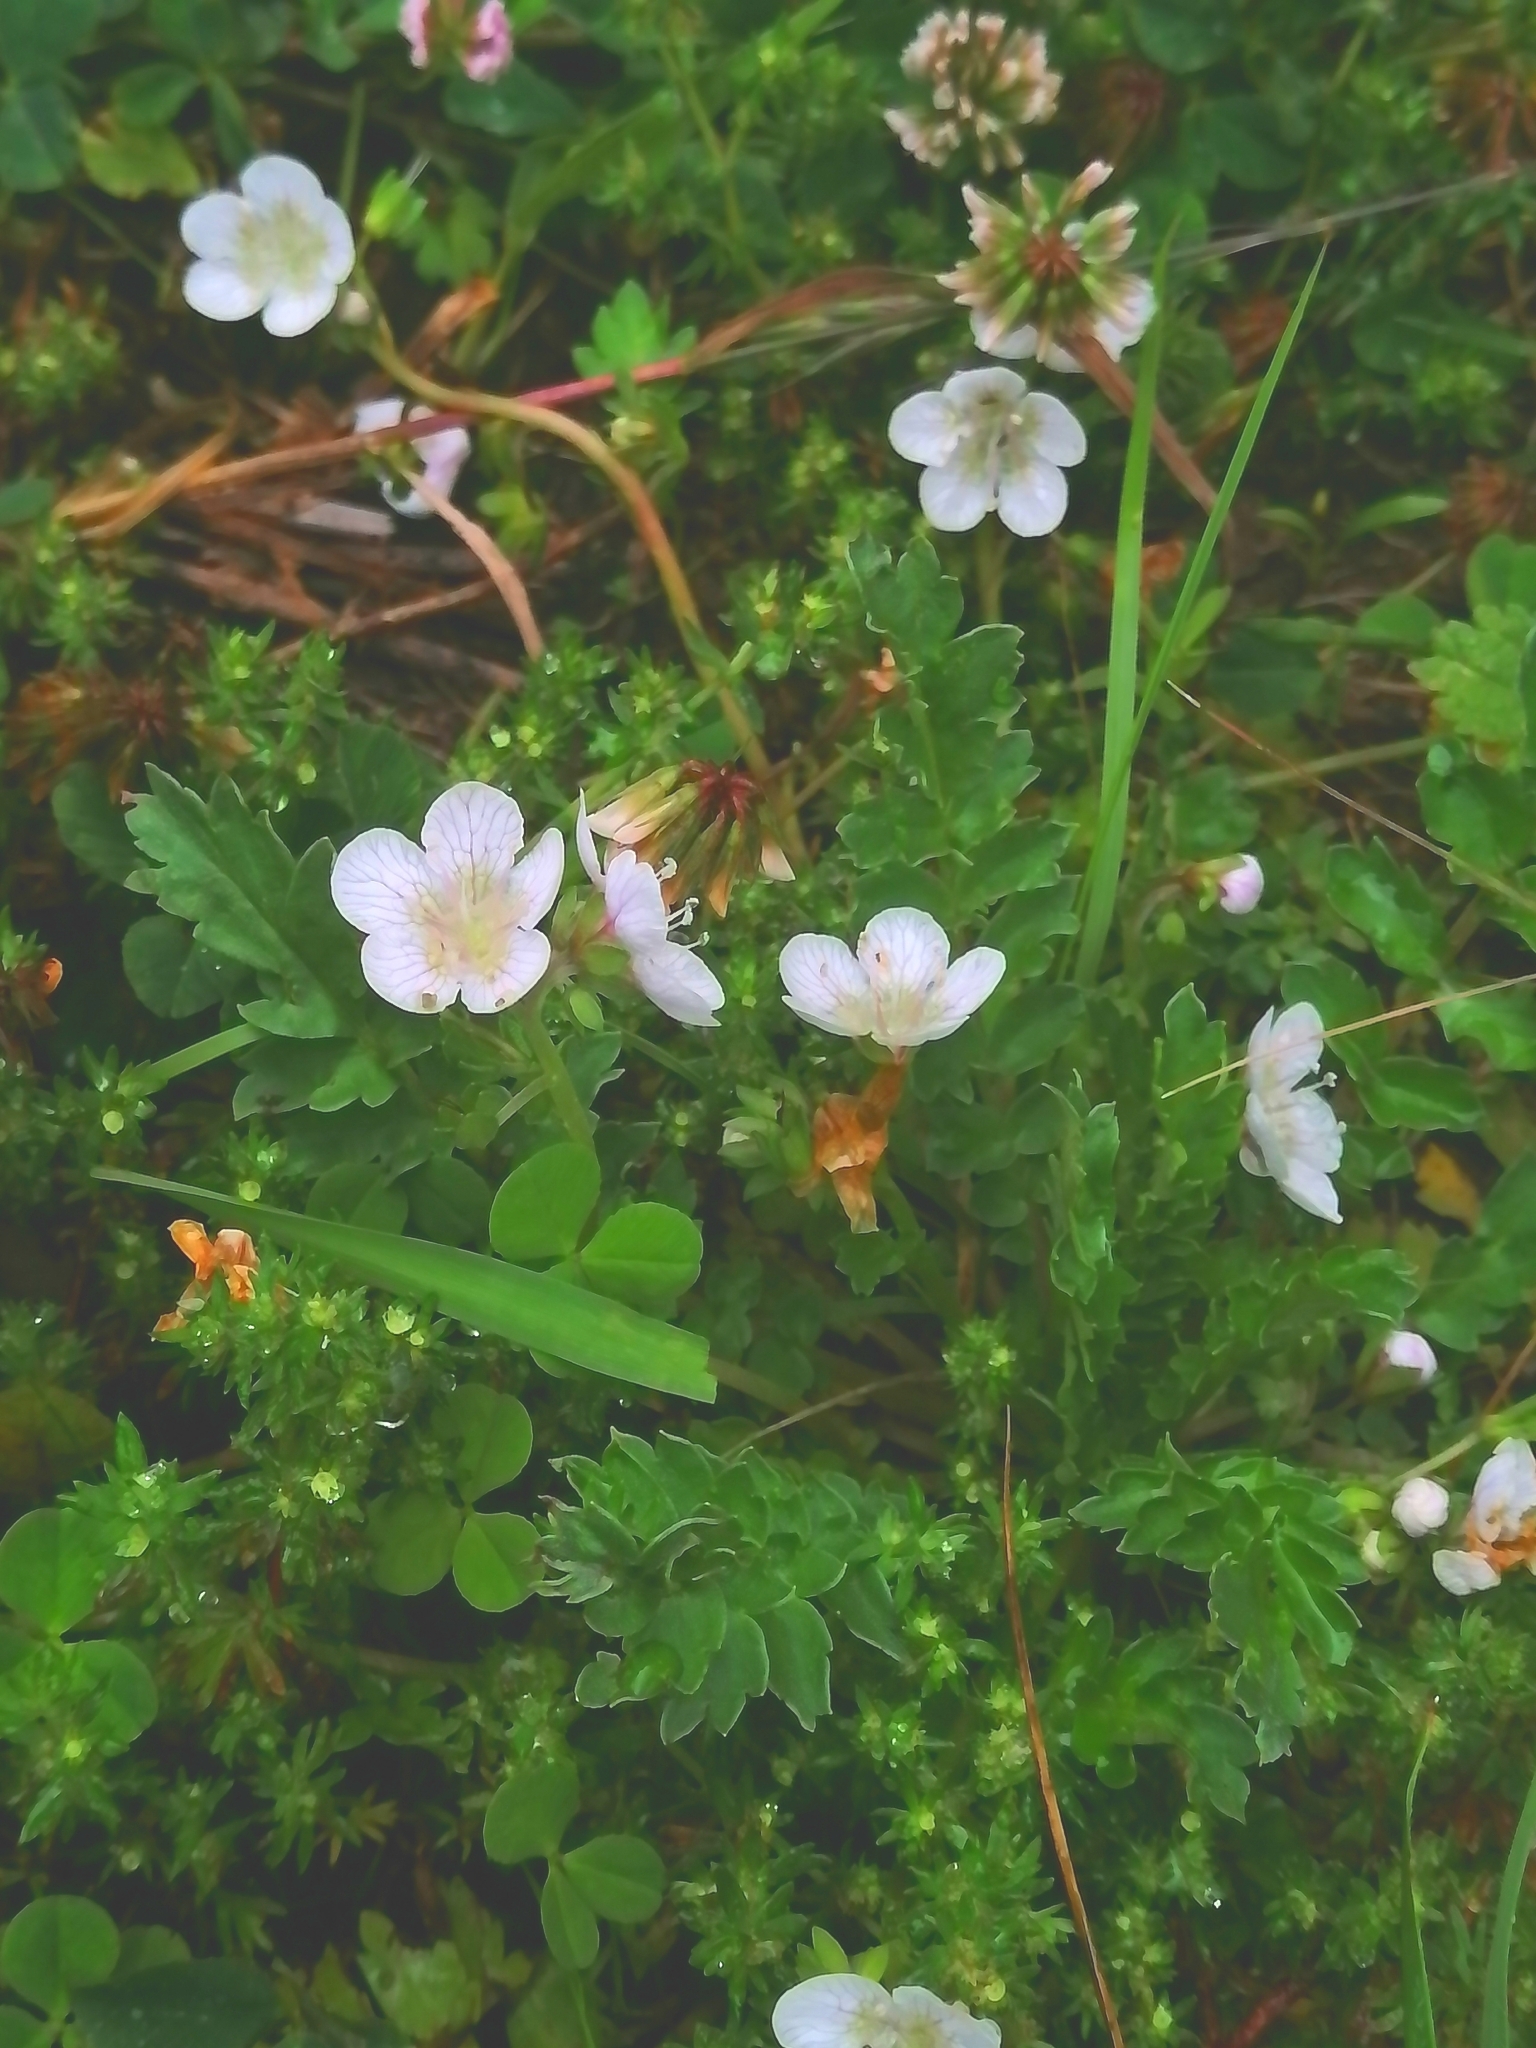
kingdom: Plantae
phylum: Tracheophyta
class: Magnoliopsida
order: Boraginales
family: Hydrophyllaceae
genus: Phacelia
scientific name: Phacelia platycarpa
